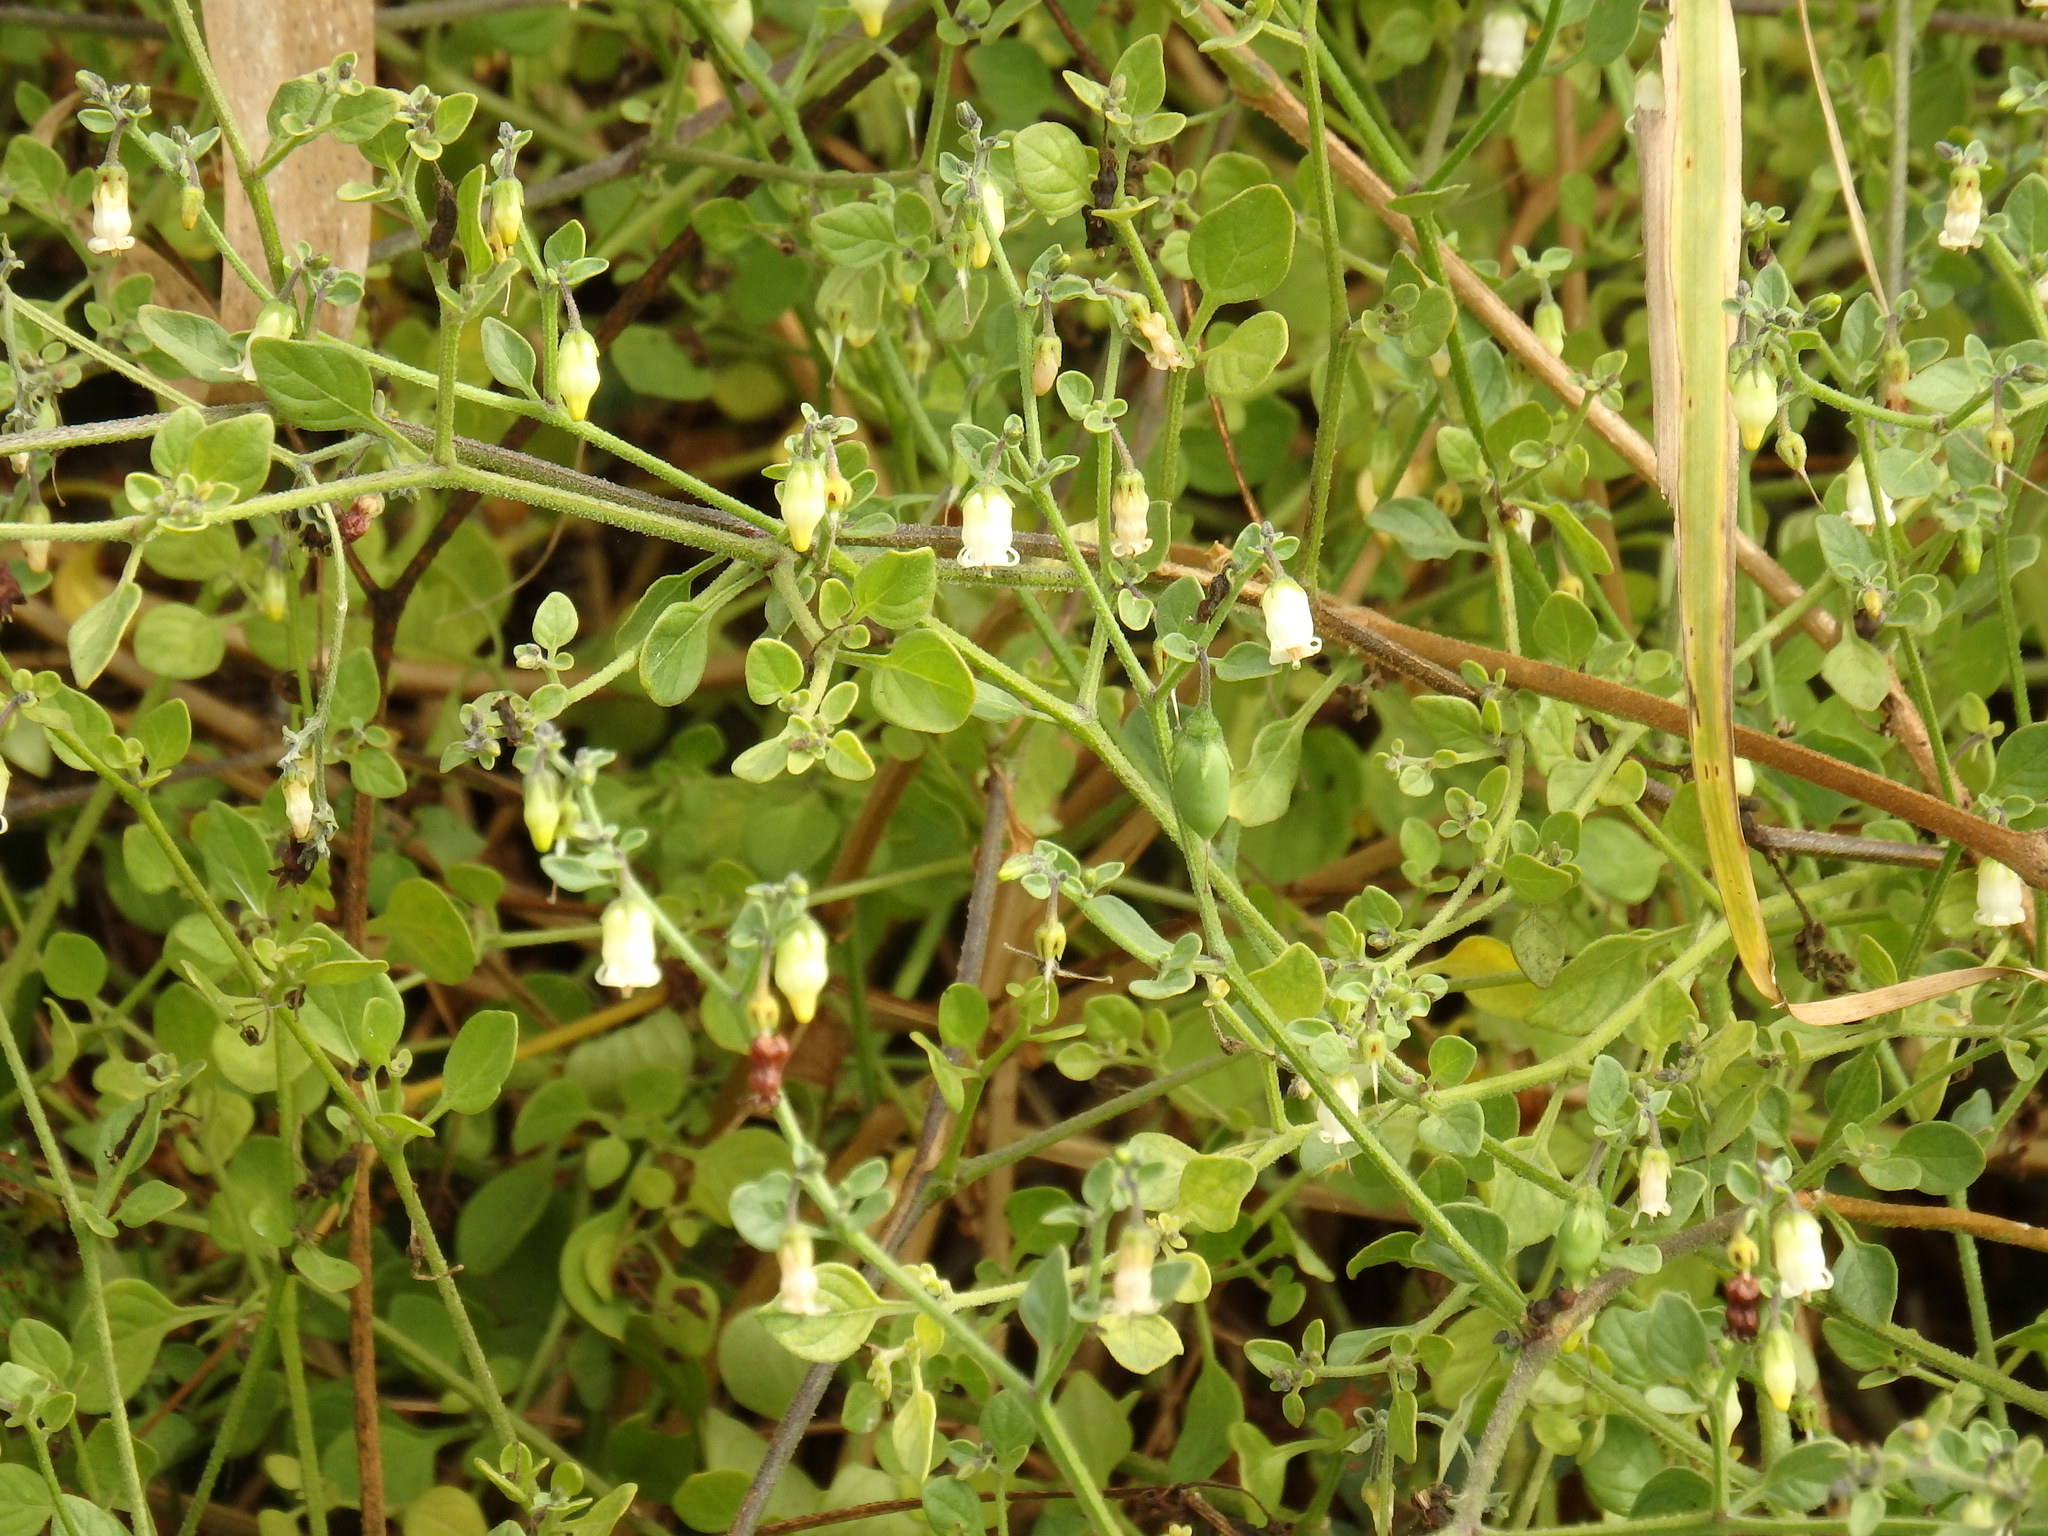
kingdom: Plantae
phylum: Tracheophyta
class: Magnoliopsida
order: Solanales
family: Solanaceae
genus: Salpichroa
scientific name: Salpichroa origanifolia
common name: Lily-of-the-valley-vine
